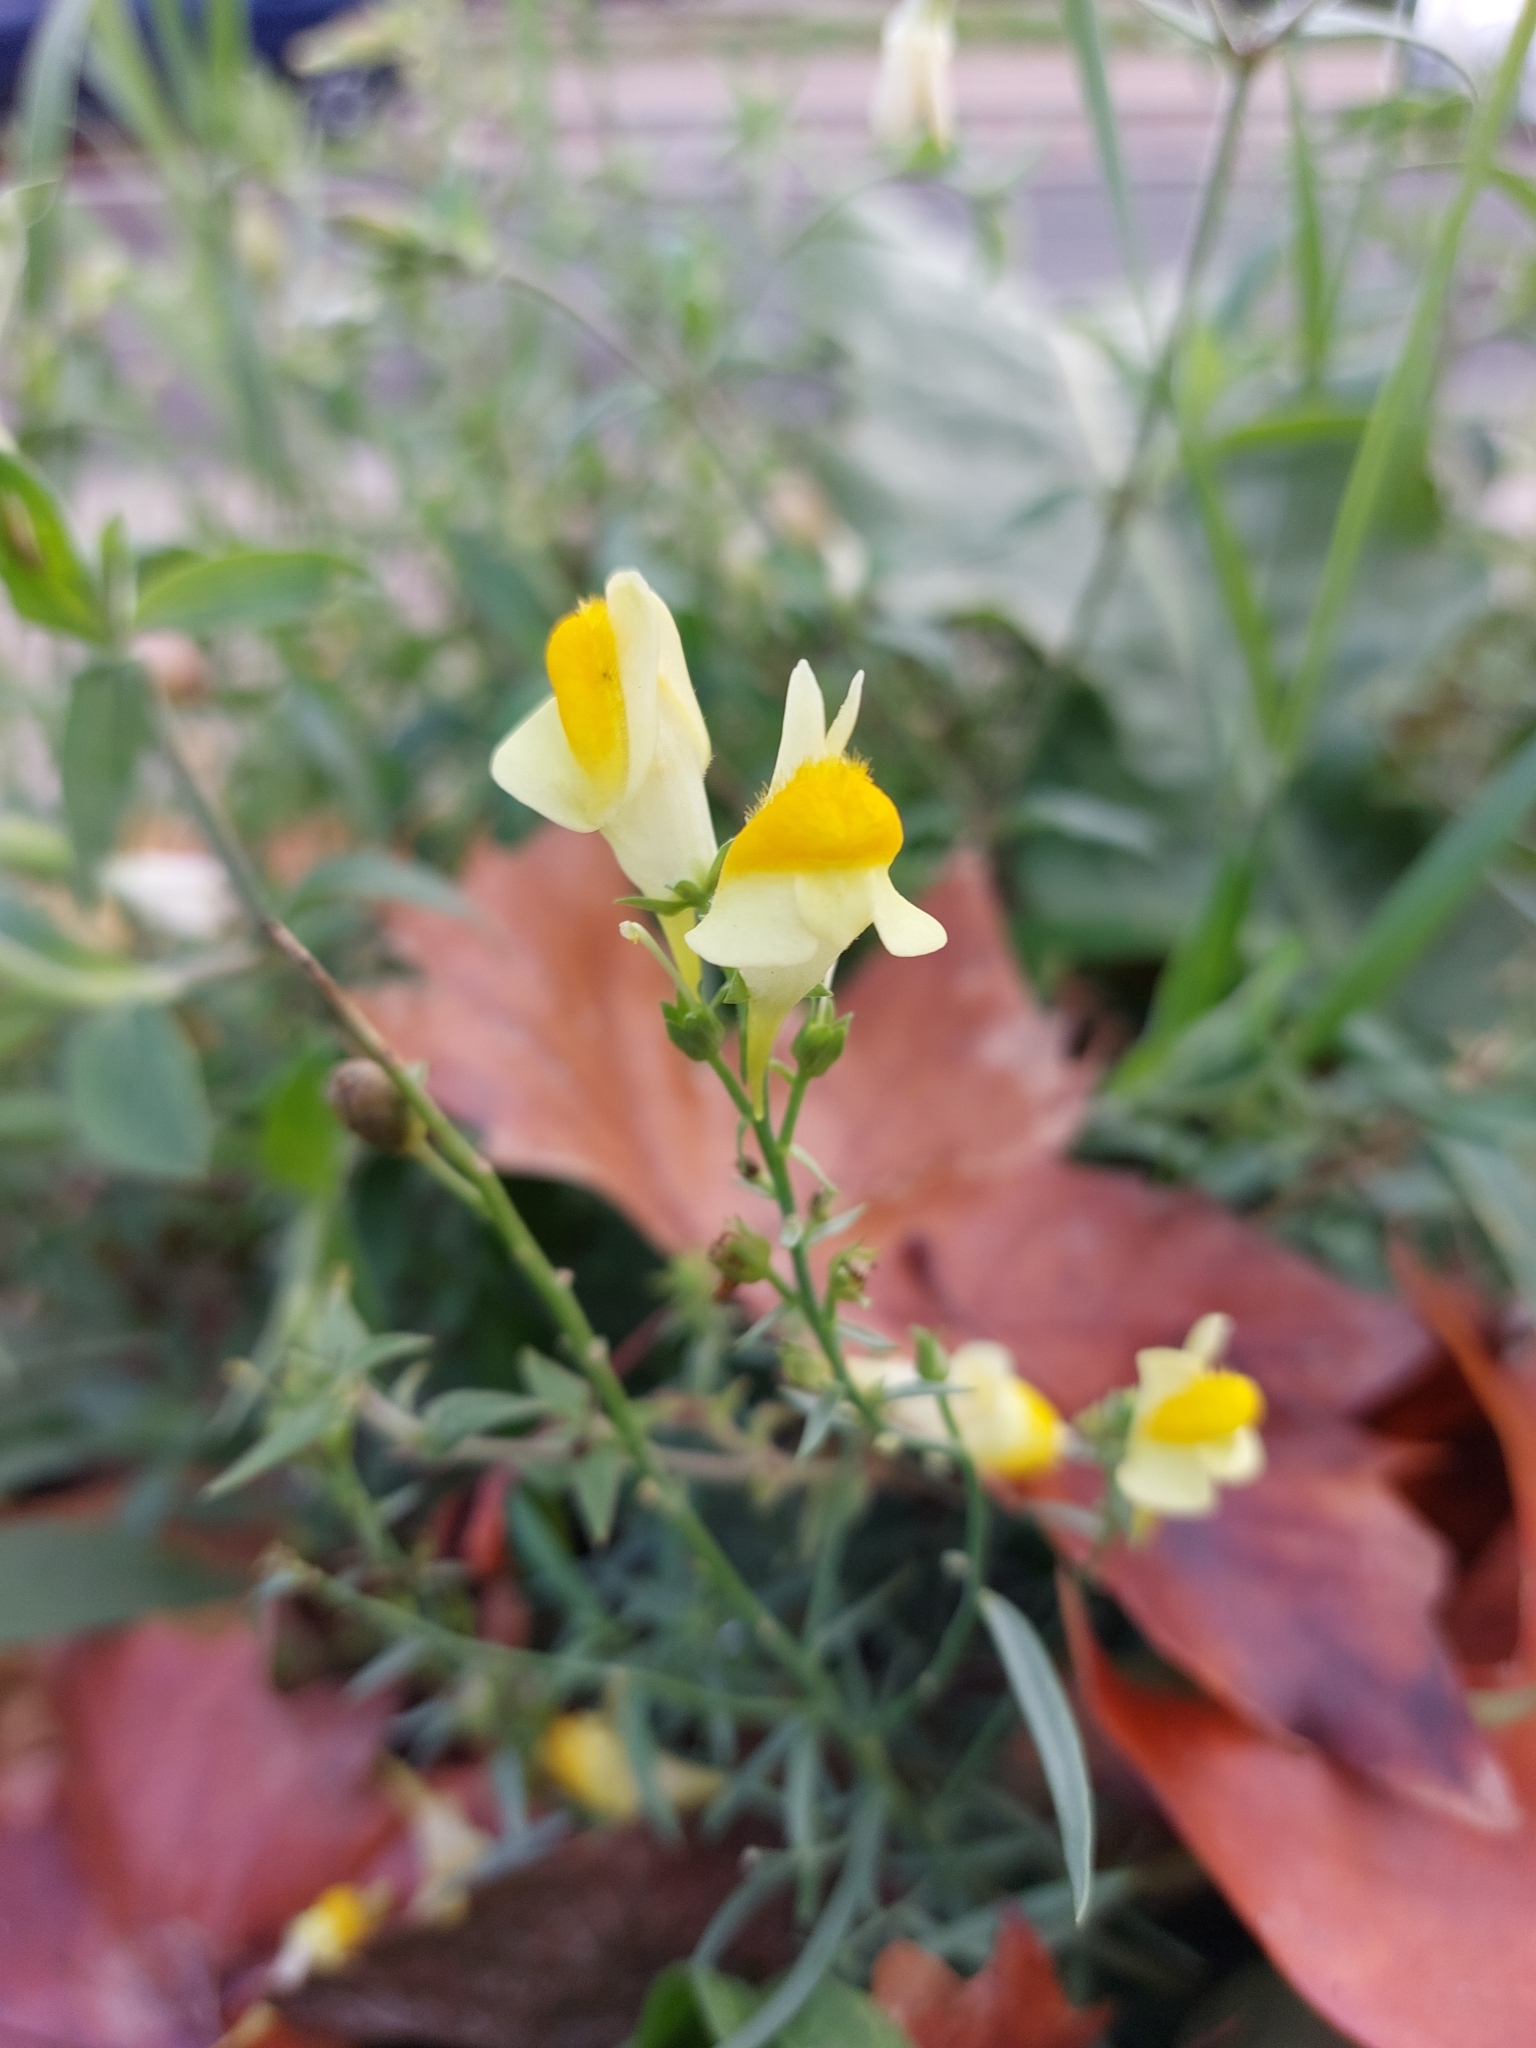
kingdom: Plantae
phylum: Tracheophyta
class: Magnoliopsida
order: Lamiales
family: Plantaginaceae
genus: Linaria
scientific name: Linaria vulgaris
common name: Butter and eggs
